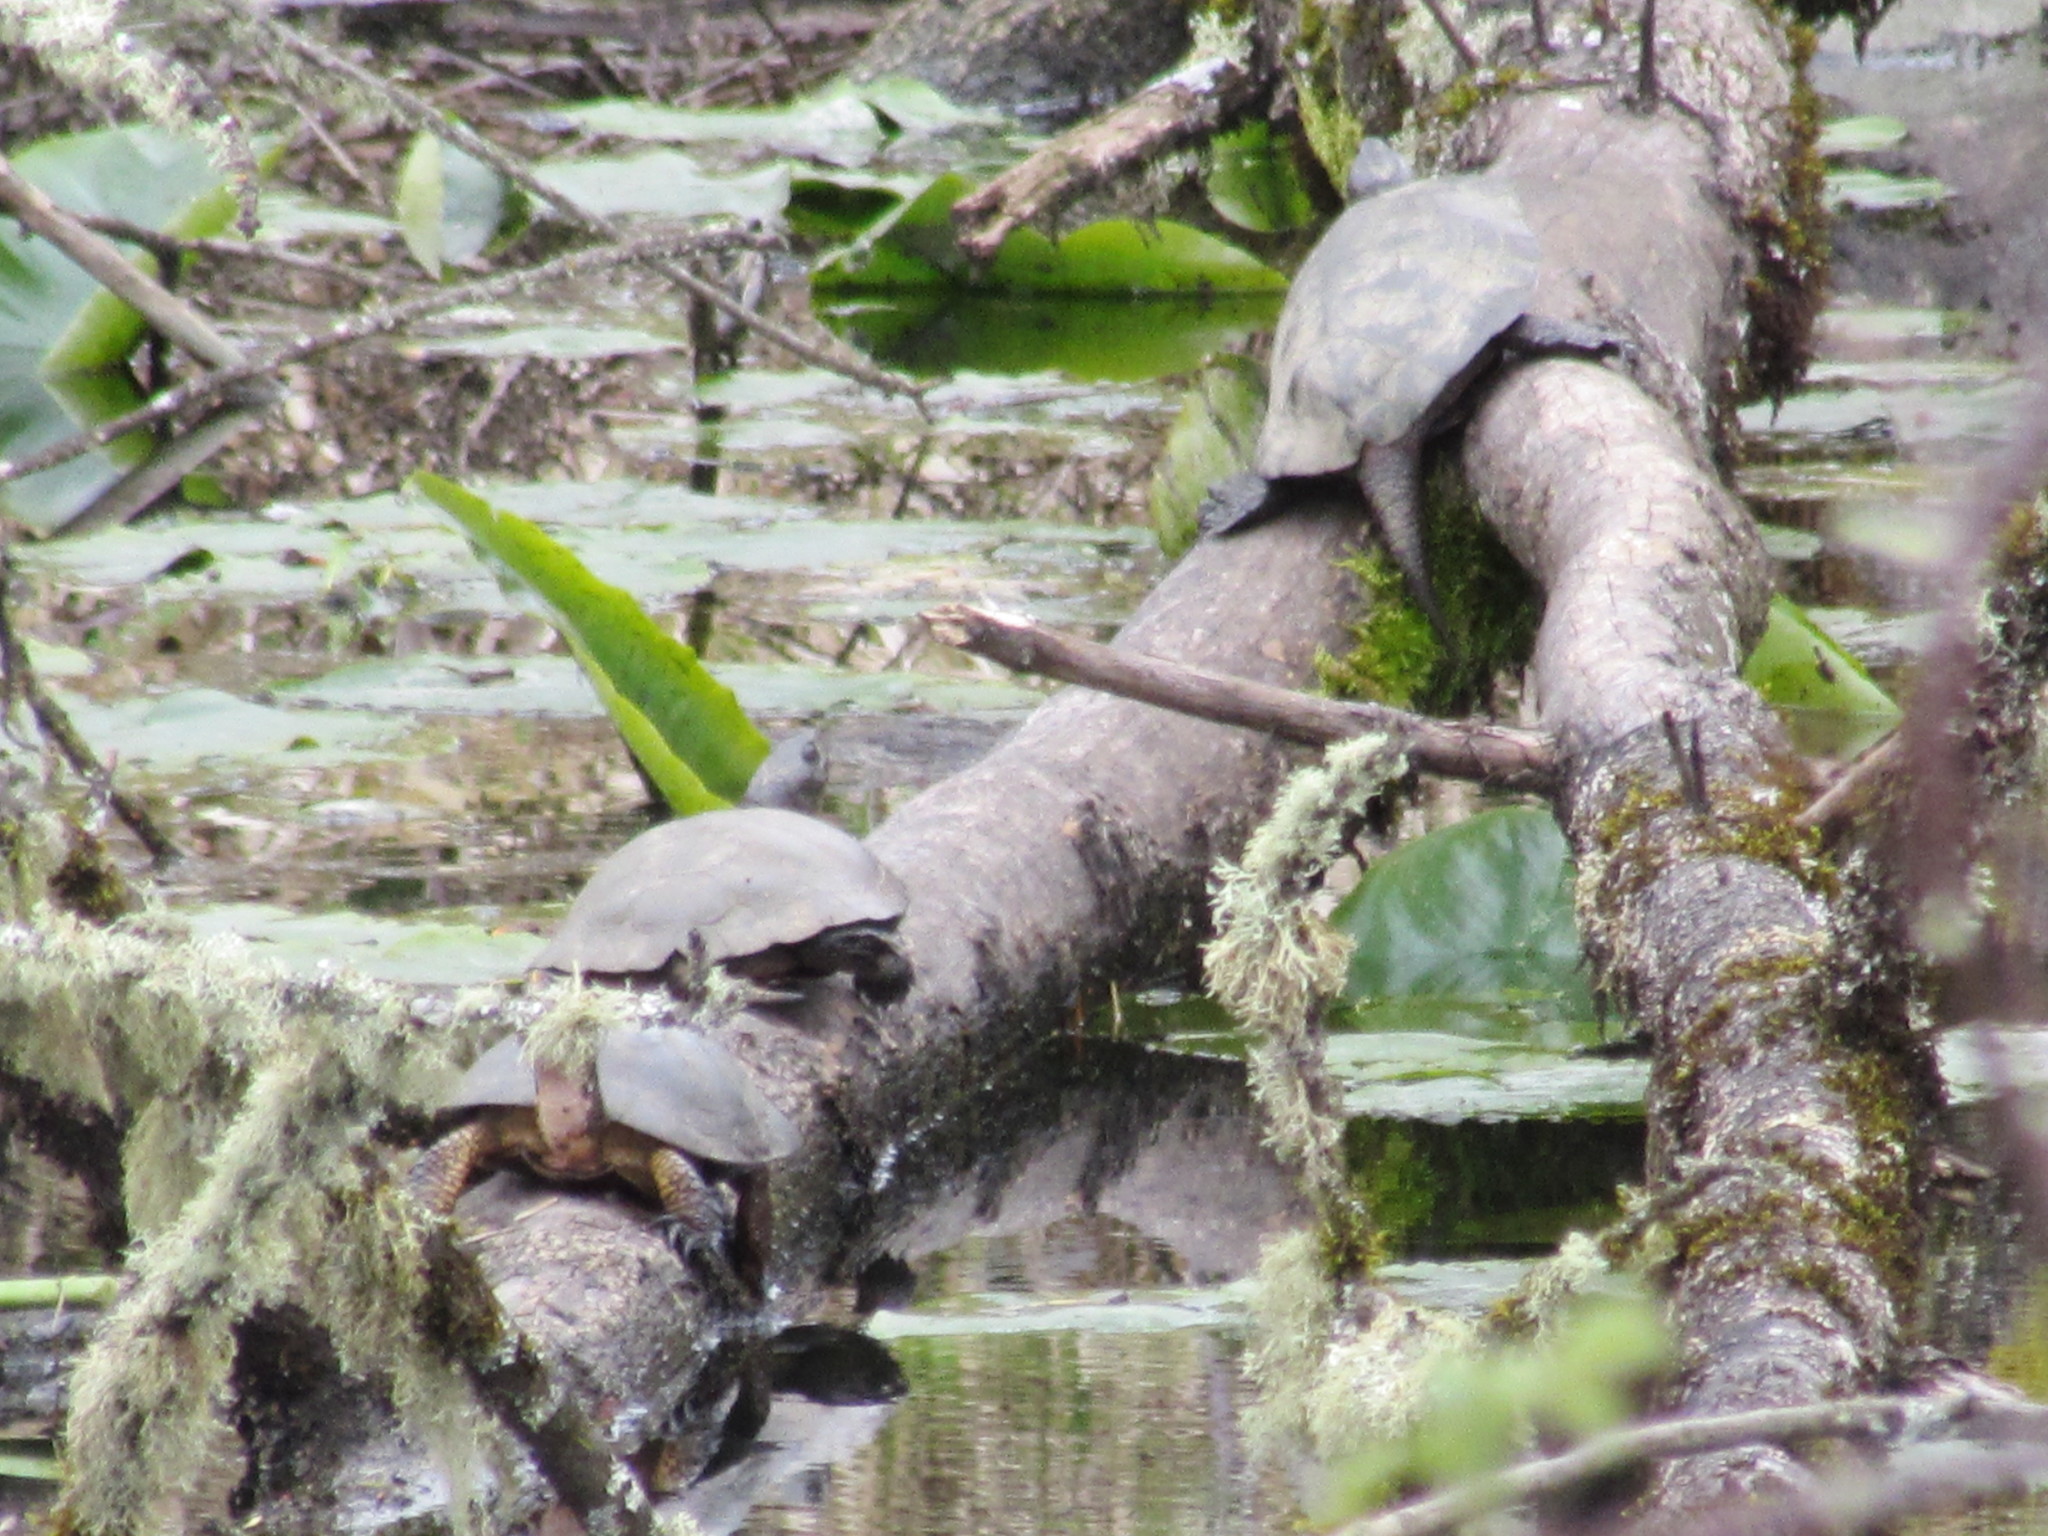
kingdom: Animalia
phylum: Chordata
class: Testudines
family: Emydidae
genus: Actinemys
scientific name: Actinemys marmorata
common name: Western pond turtle
